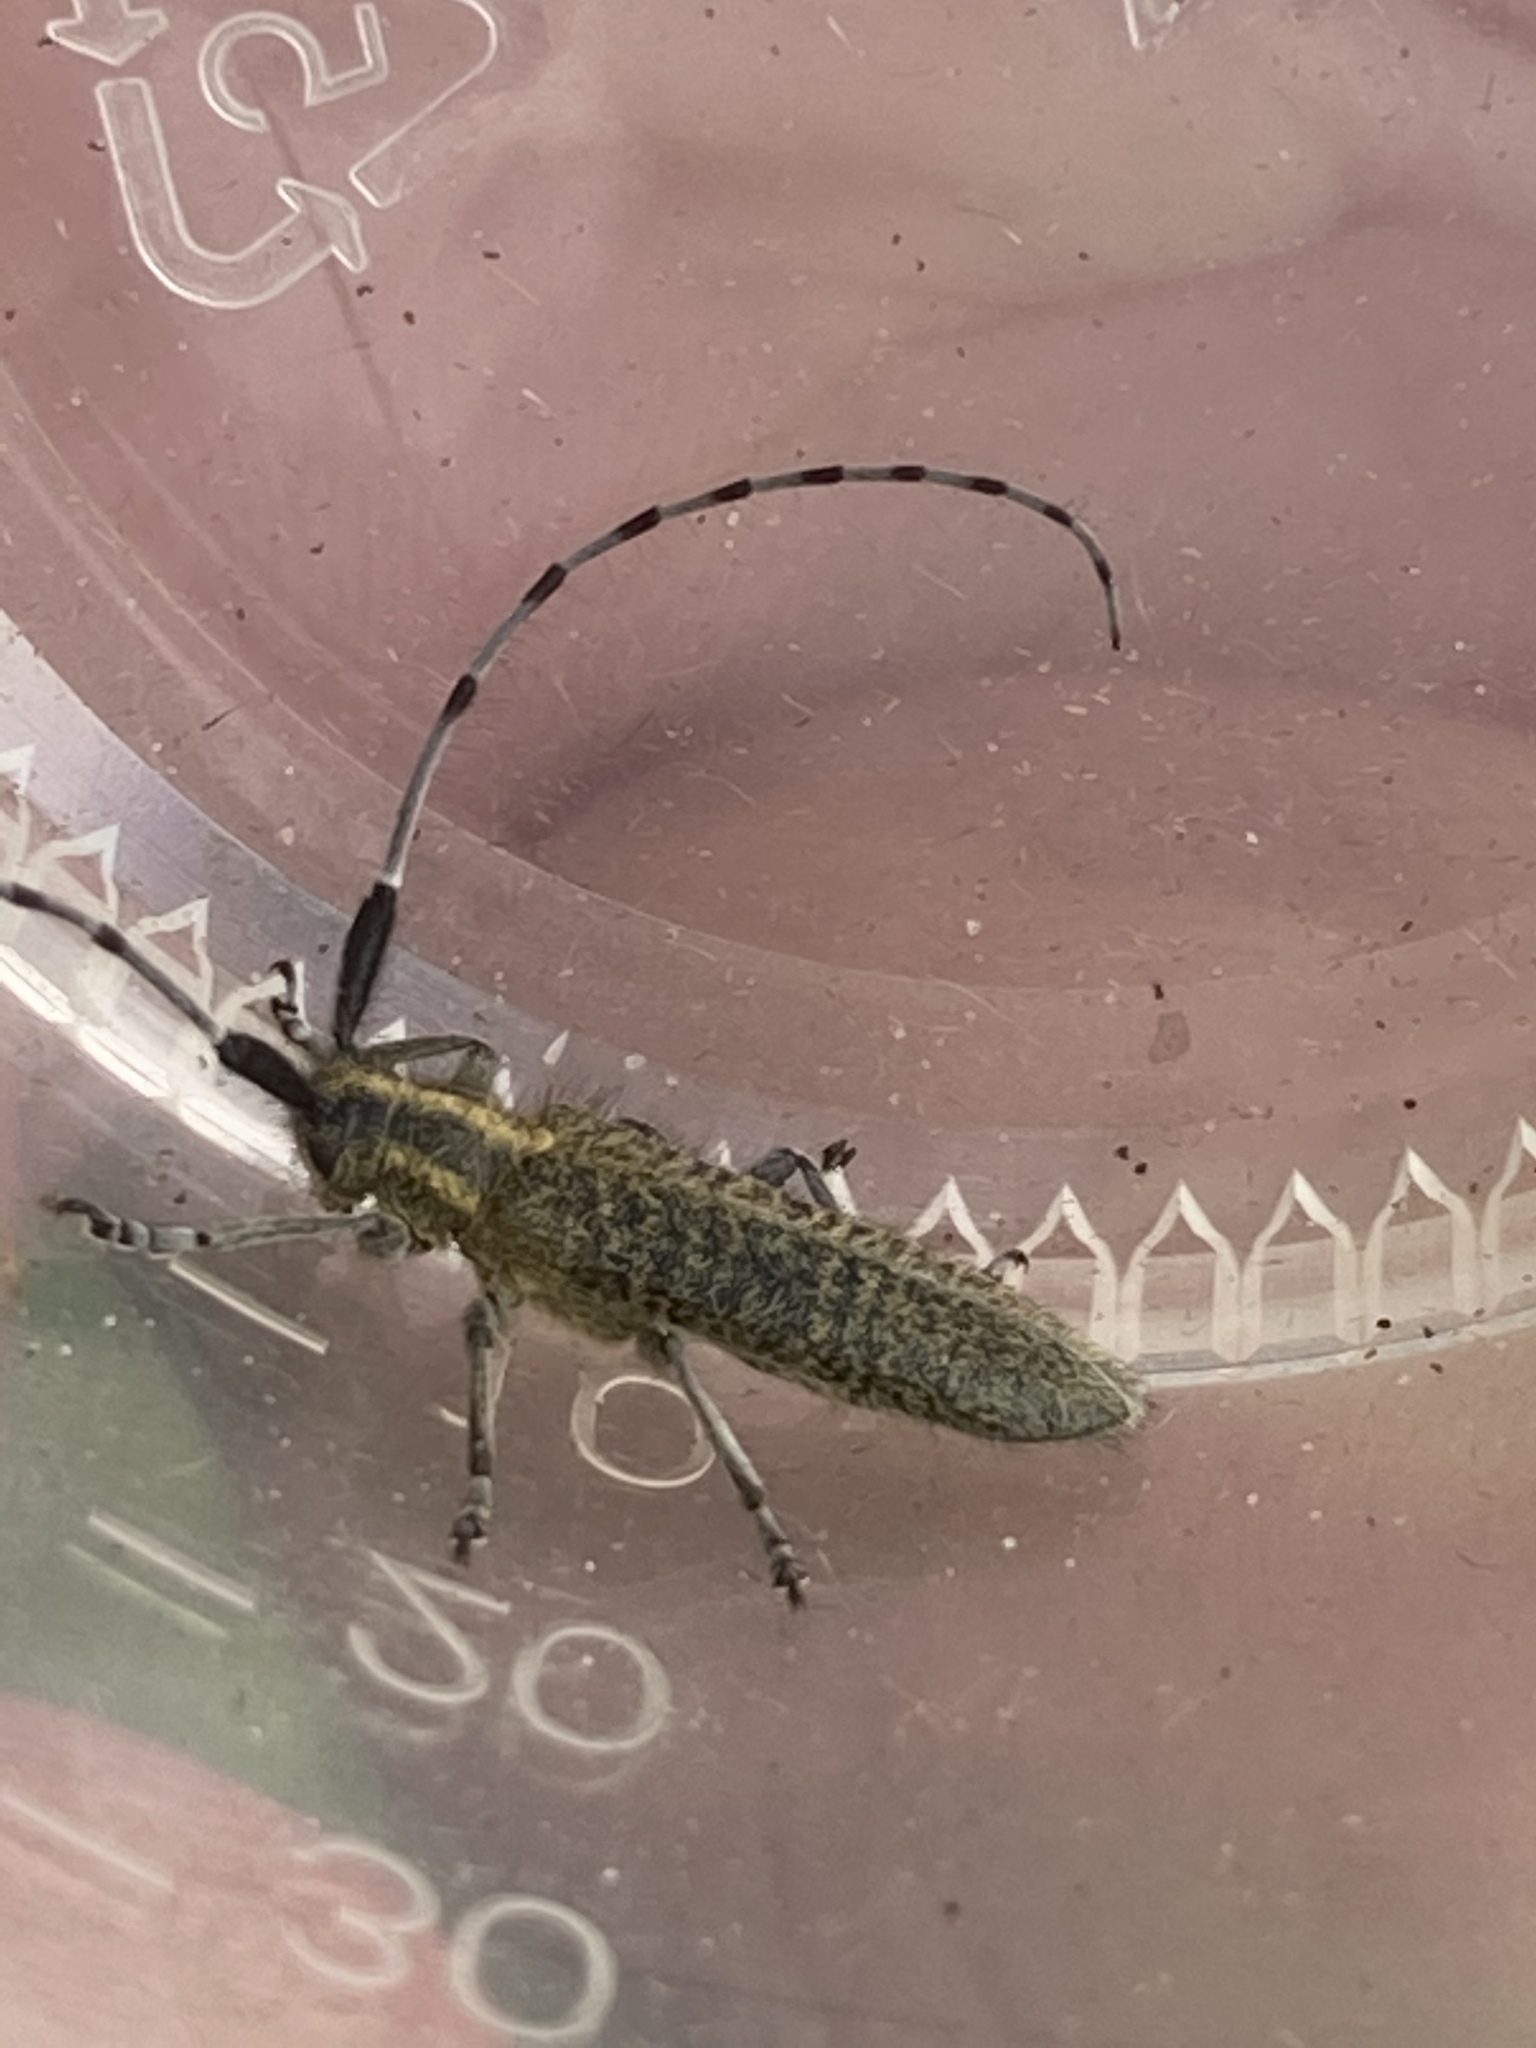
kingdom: Animalia
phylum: Arthropoda
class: Insecta
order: Coleoptera
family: Cerambycidae
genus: Agapanthia
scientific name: Agapanthia villosoviridescens
